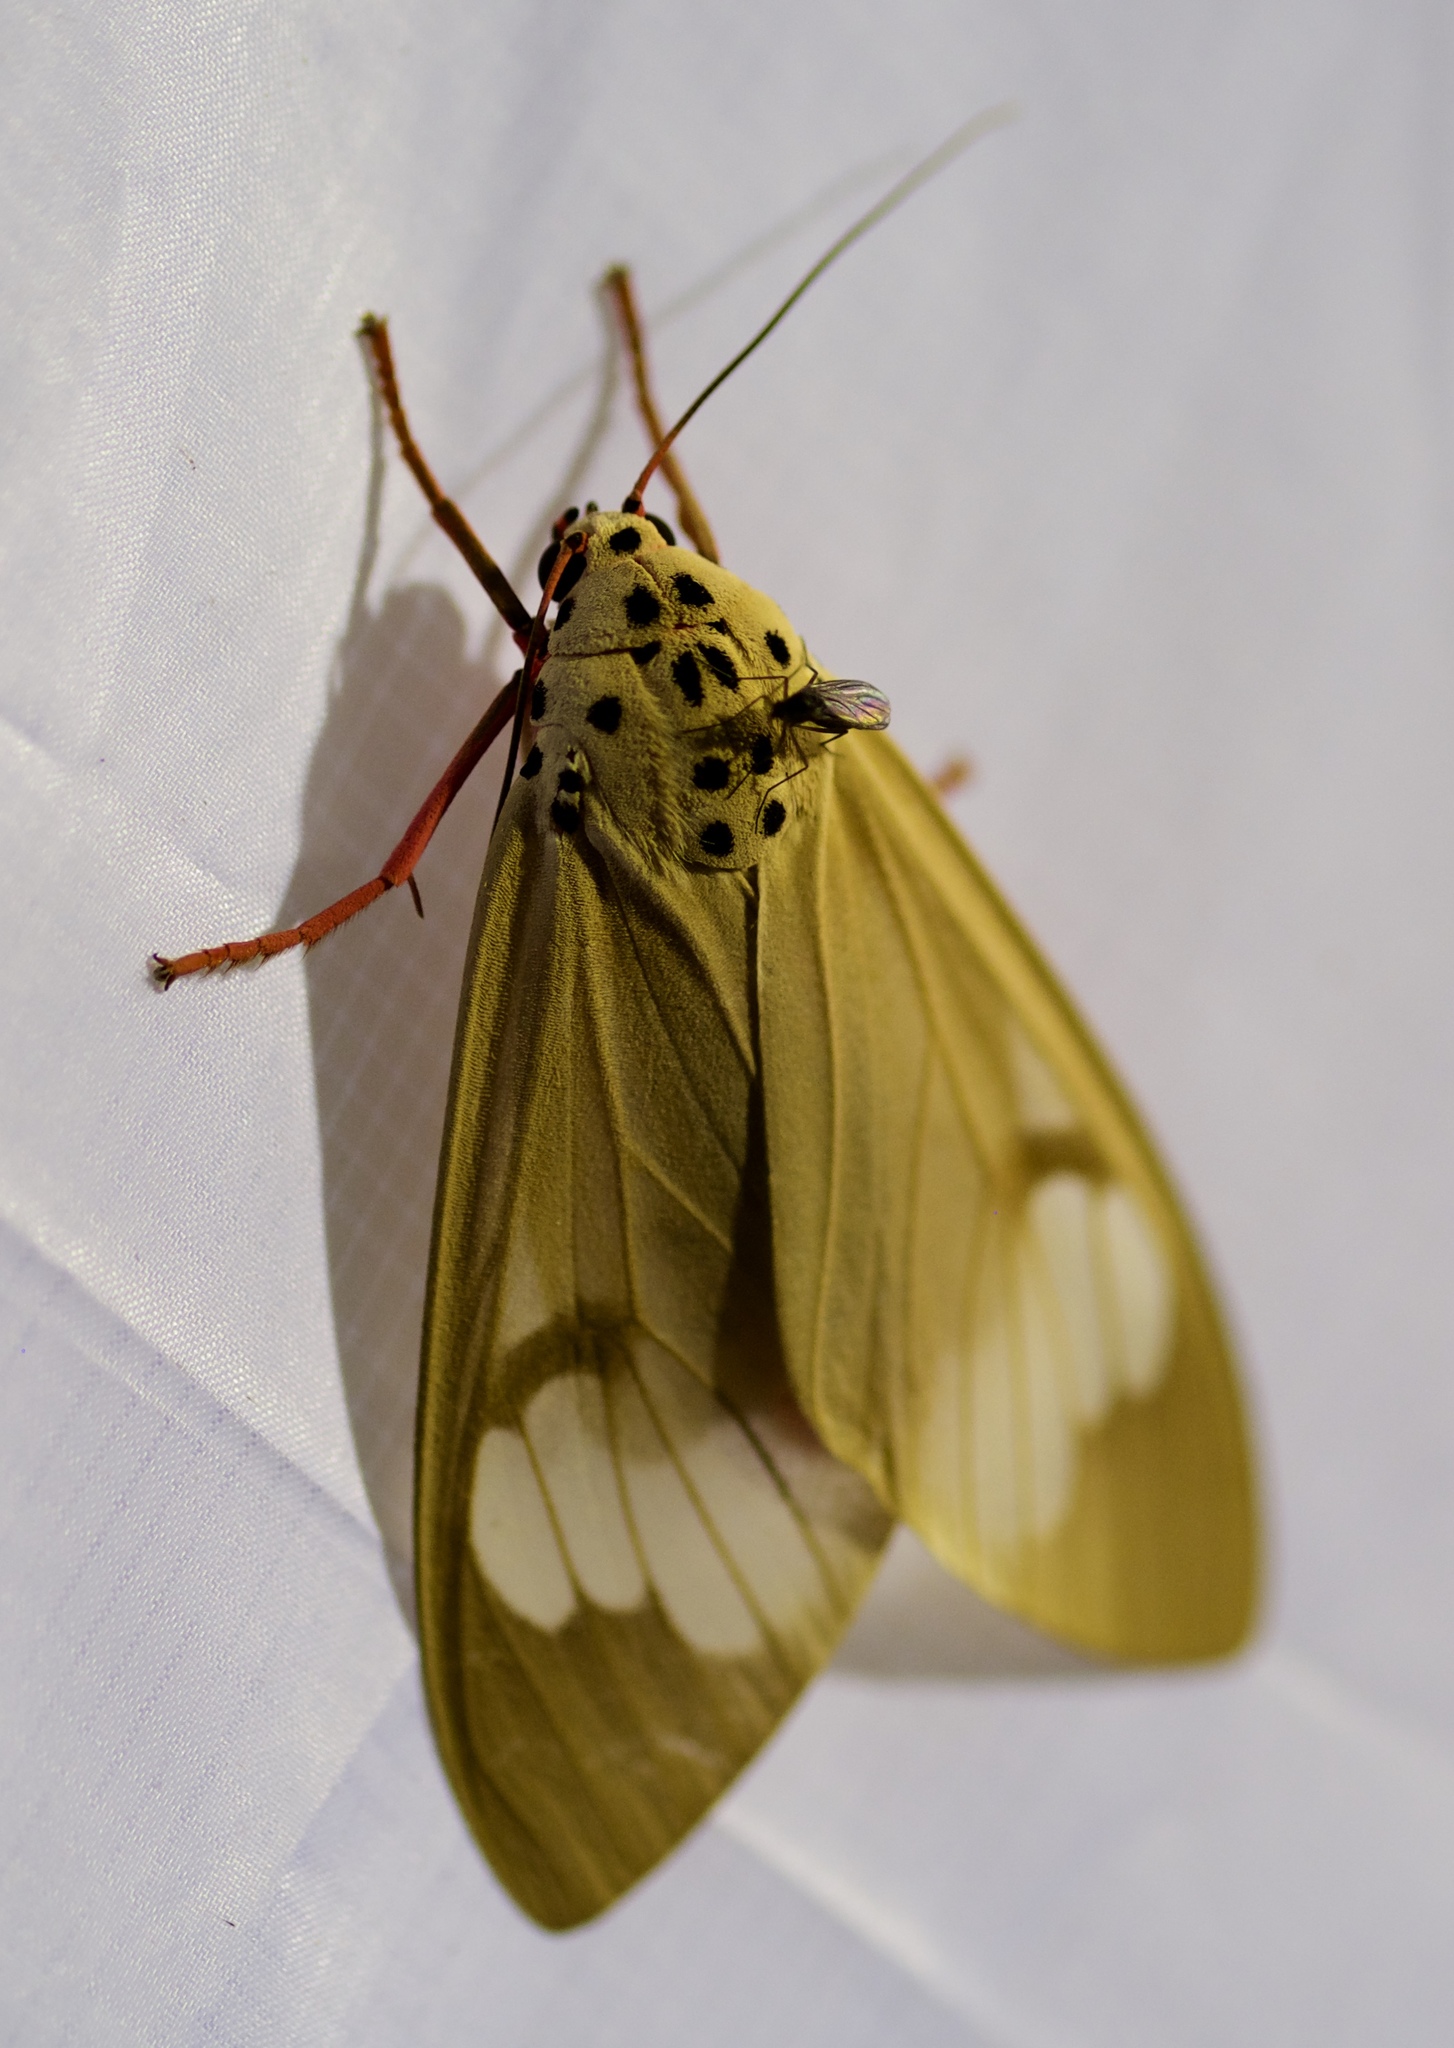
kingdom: Animalia
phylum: Arthropoda
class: Insecta
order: Lepidoptera
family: Erebidae
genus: Amerila
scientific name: Amerila astreus
